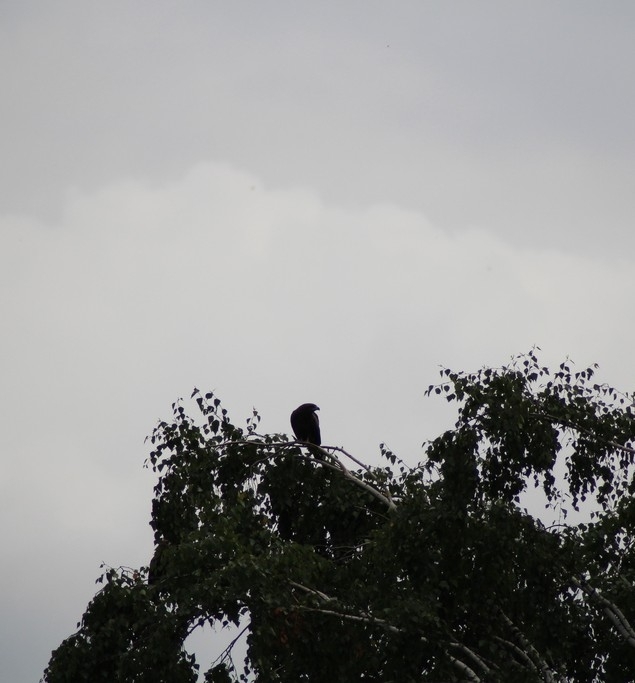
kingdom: Animalia
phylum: Chordata
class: Aves
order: Accipitriformes
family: Accipitridae
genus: Milvus
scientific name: Milvus migrans
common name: Black kite
